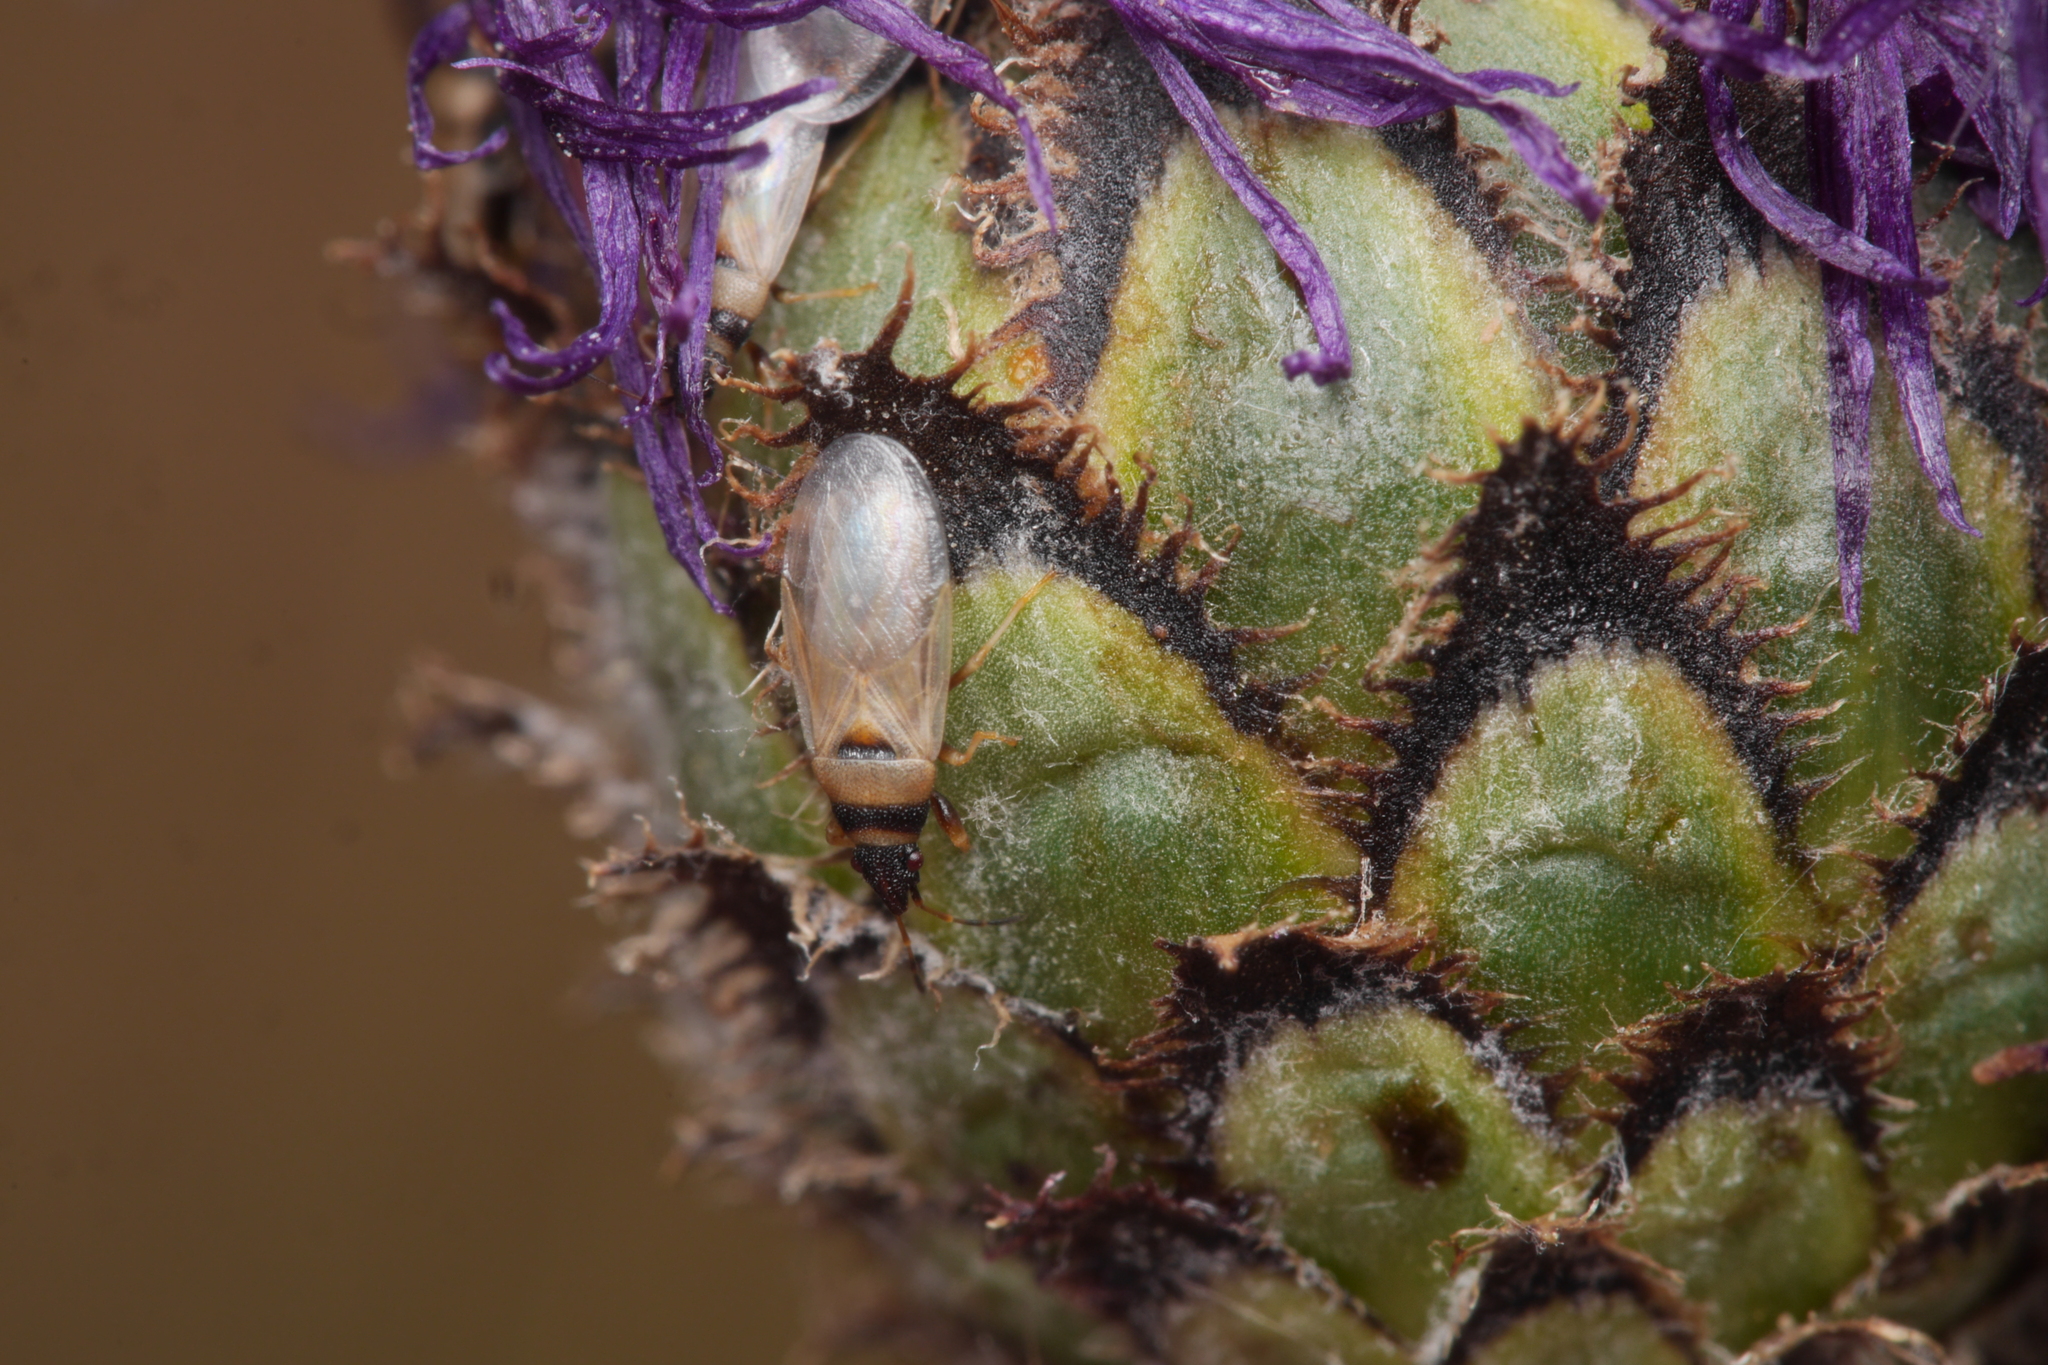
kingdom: Animalia
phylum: Arthropoda
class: Insecta
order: Hemiptera
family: Oxycarenidae
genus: Oxycarenus
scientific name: Oxycarenus pallens
